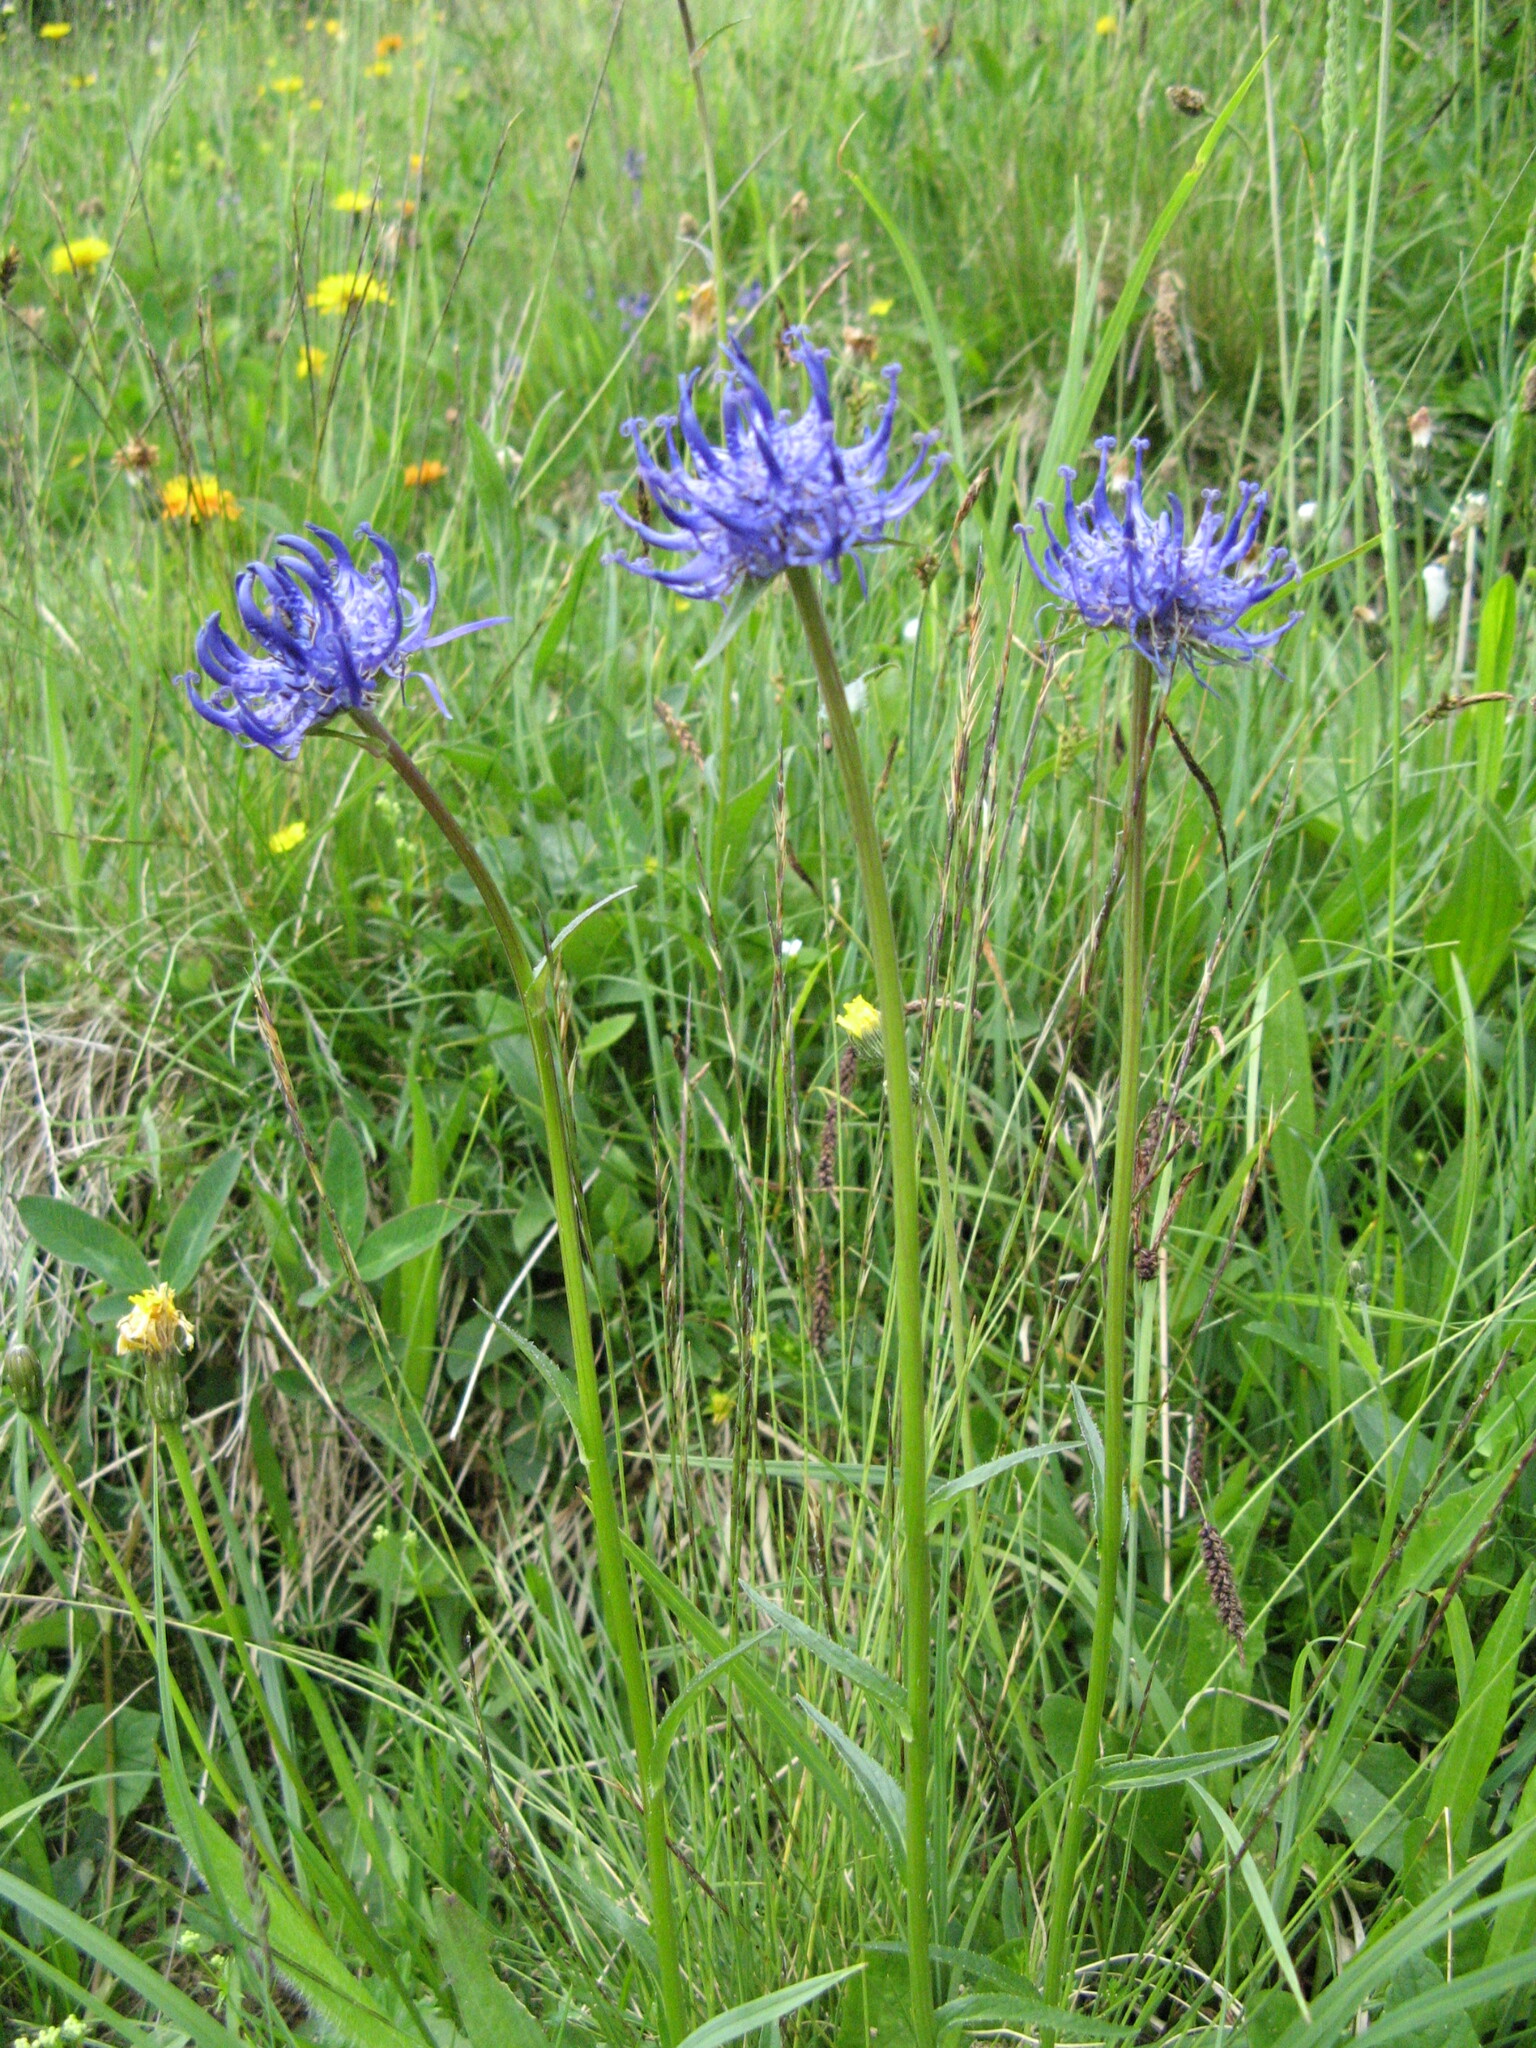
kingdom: Plantae
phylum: Tracheophyta
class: Magnoliopsida
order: Asterales
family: Campanulaceae
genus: Phyteuma
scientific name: Phyteuma orbiculare
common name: Round-headed rampion
